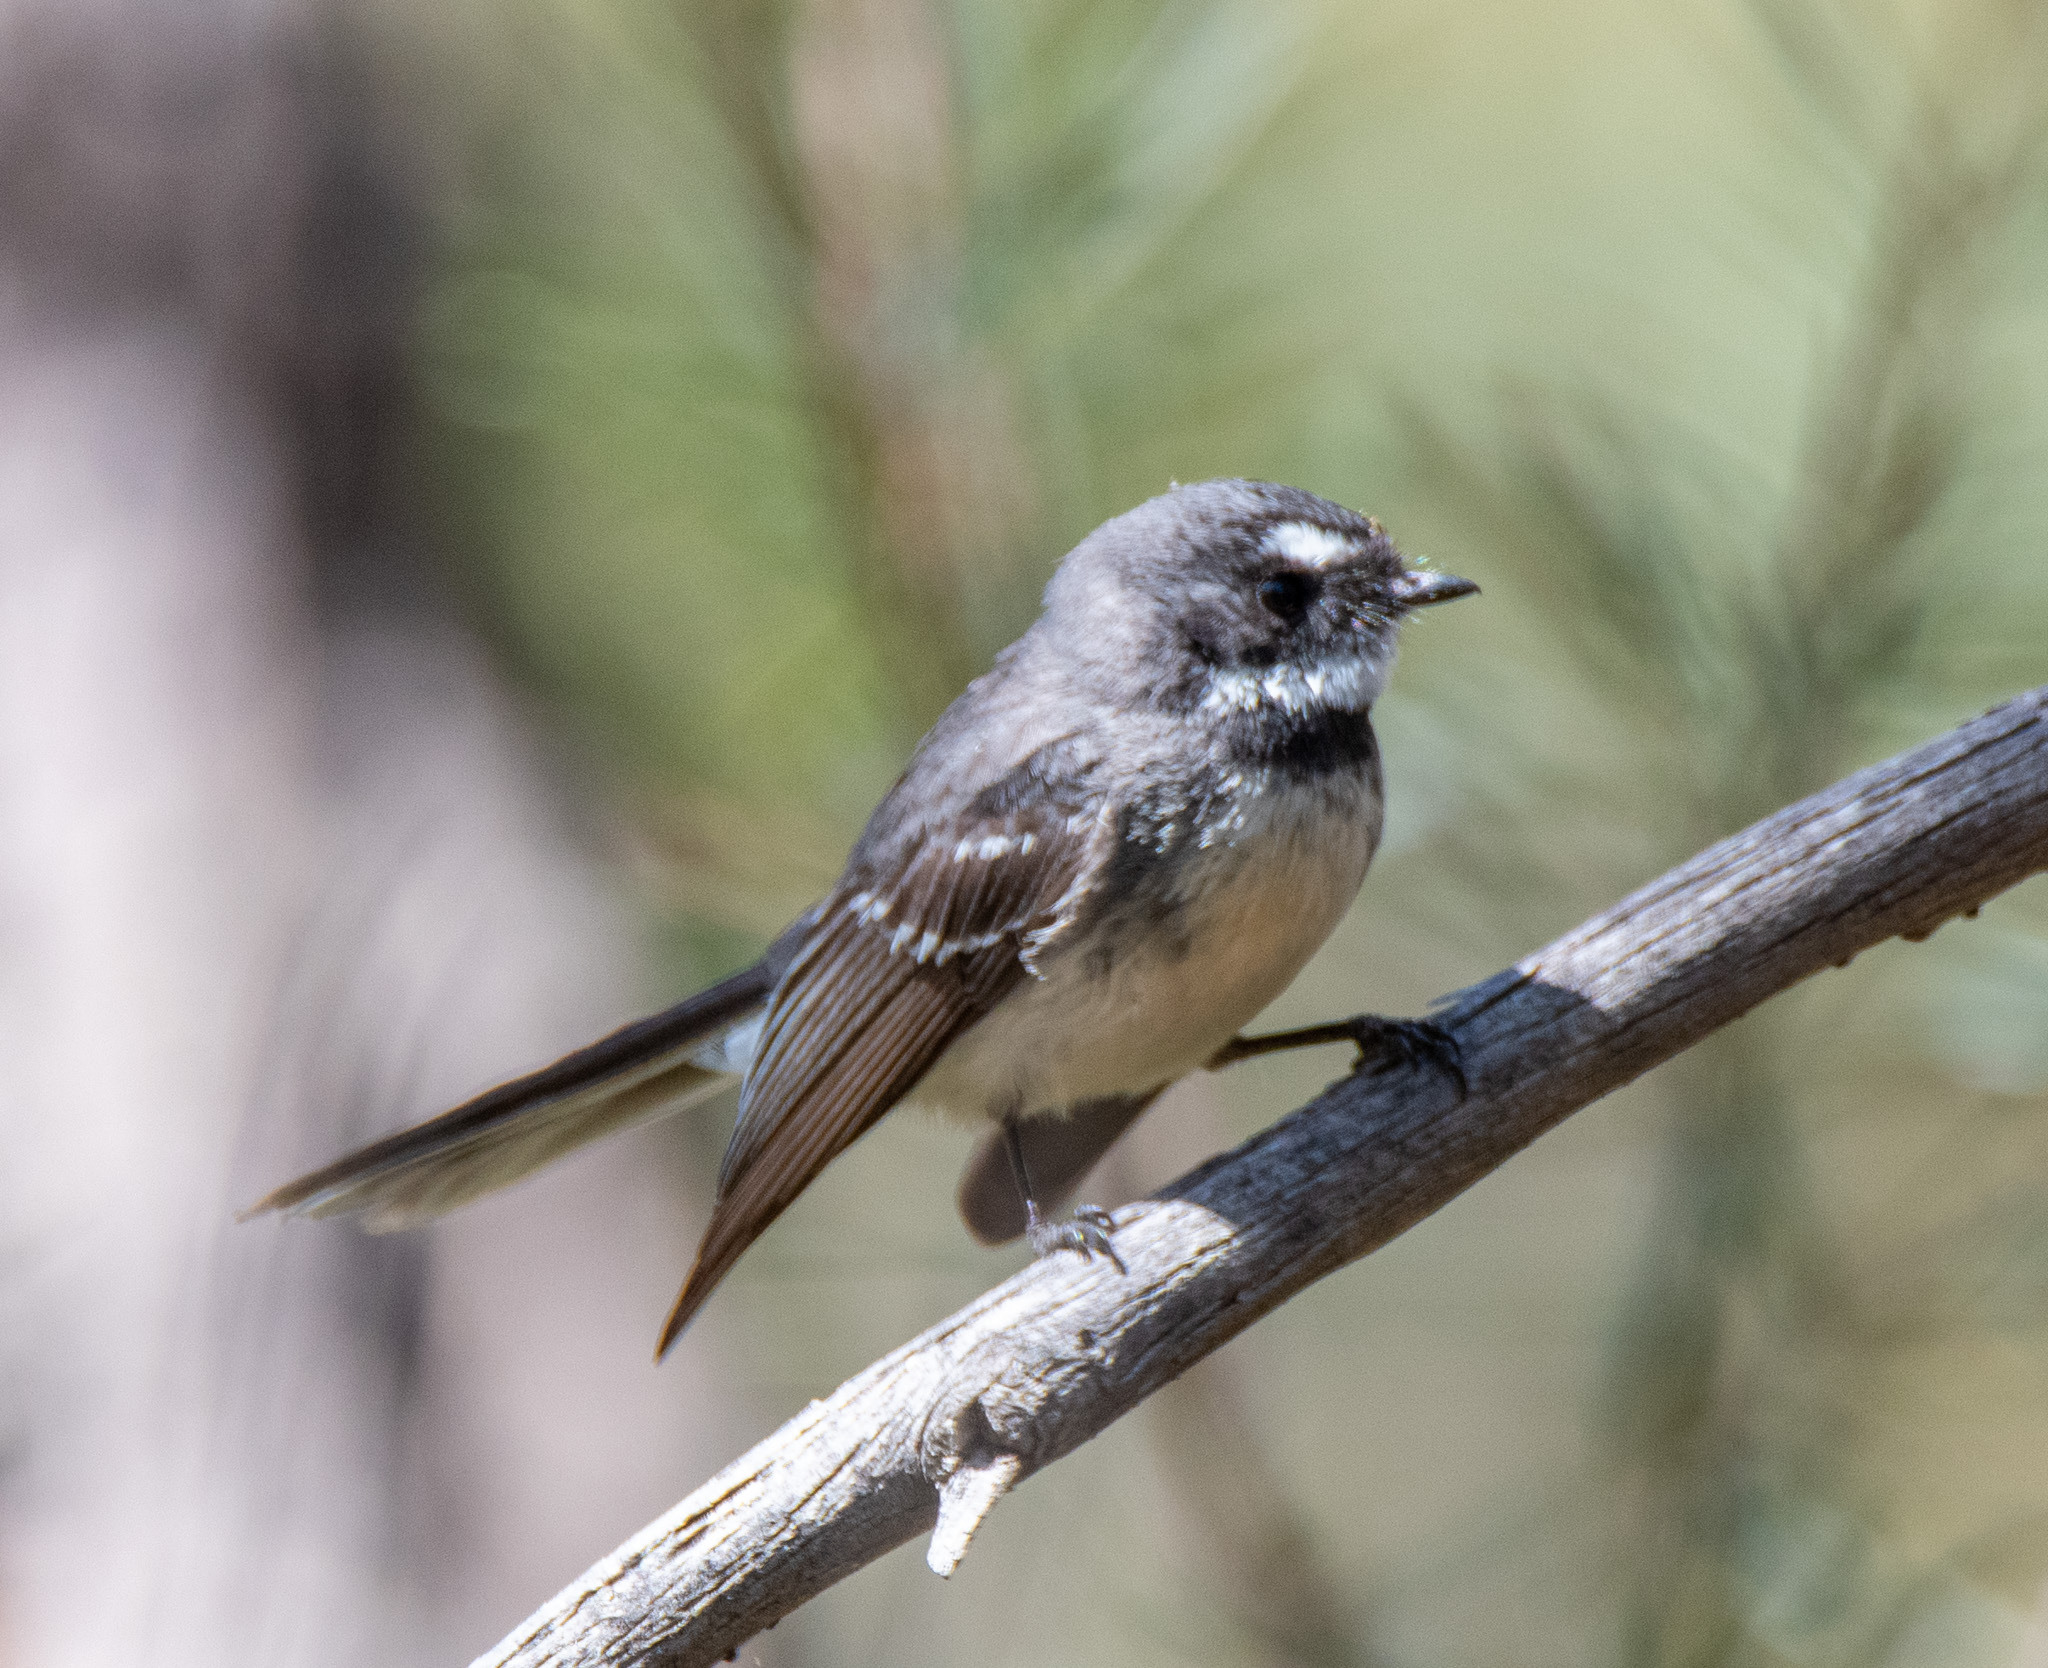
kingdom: Animalia
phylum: Chordata
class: Aves
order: Passeriformes
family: Rhipiduridae
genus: Rhipidura
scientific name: Rhipidura albiscapa
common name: Grey fantail
